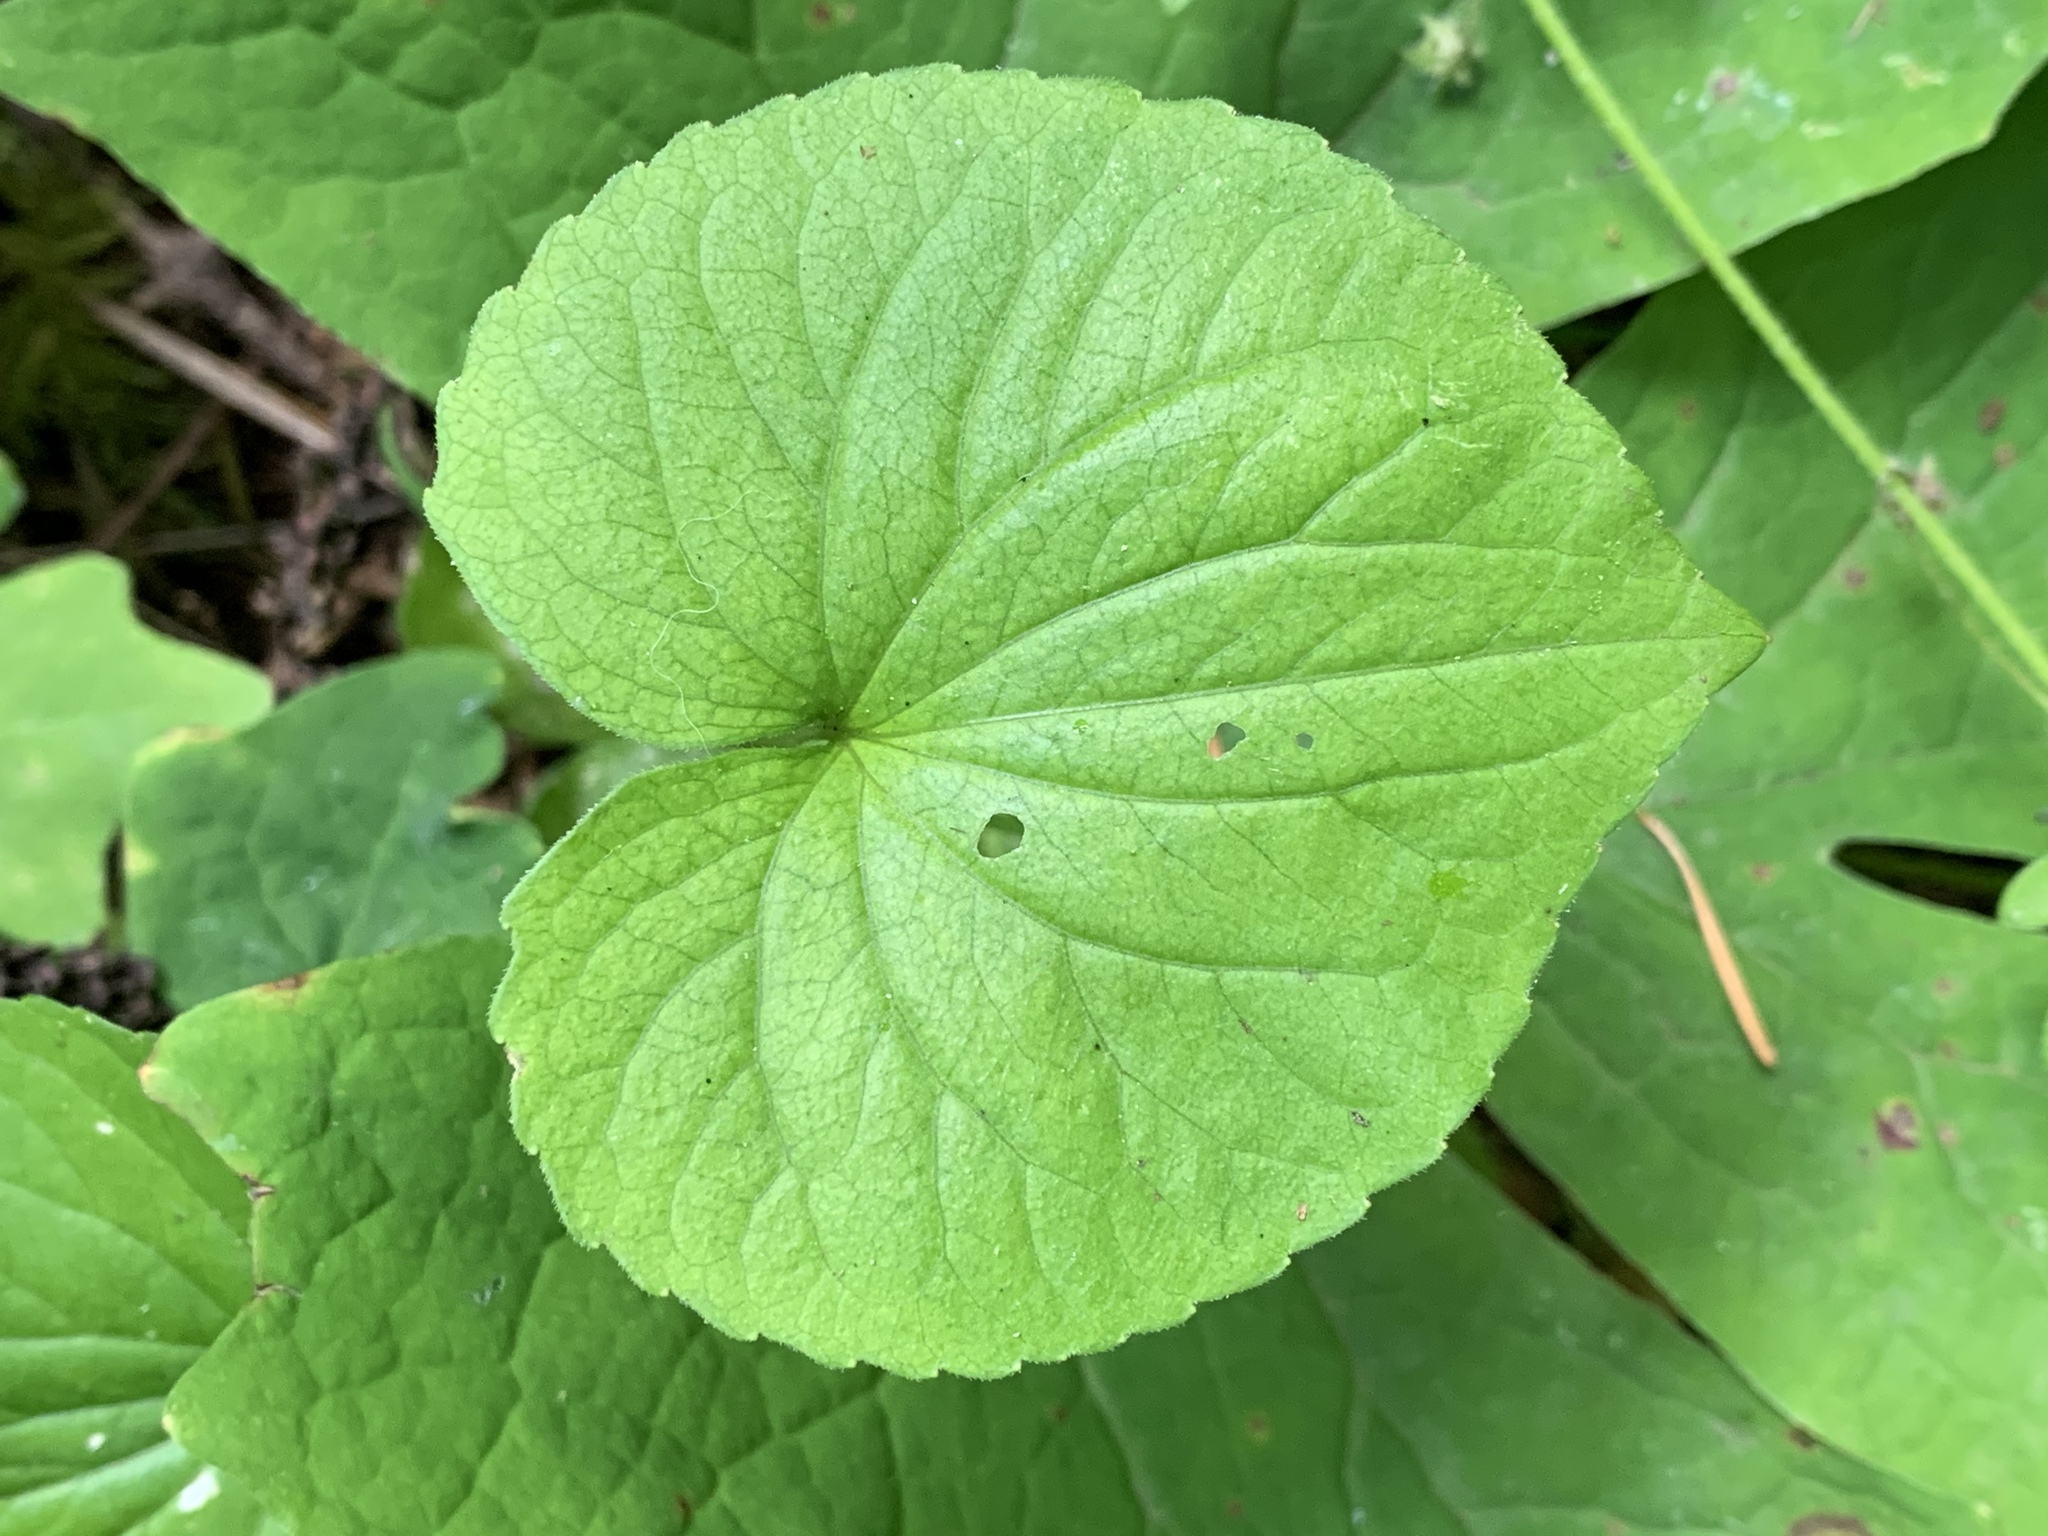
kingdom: Plantae
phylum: Tracheophyta
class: Magnoliopsida
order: Malpighiales
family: Violaceae
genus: Viola
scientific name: Viola glabella
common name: Stream violet
